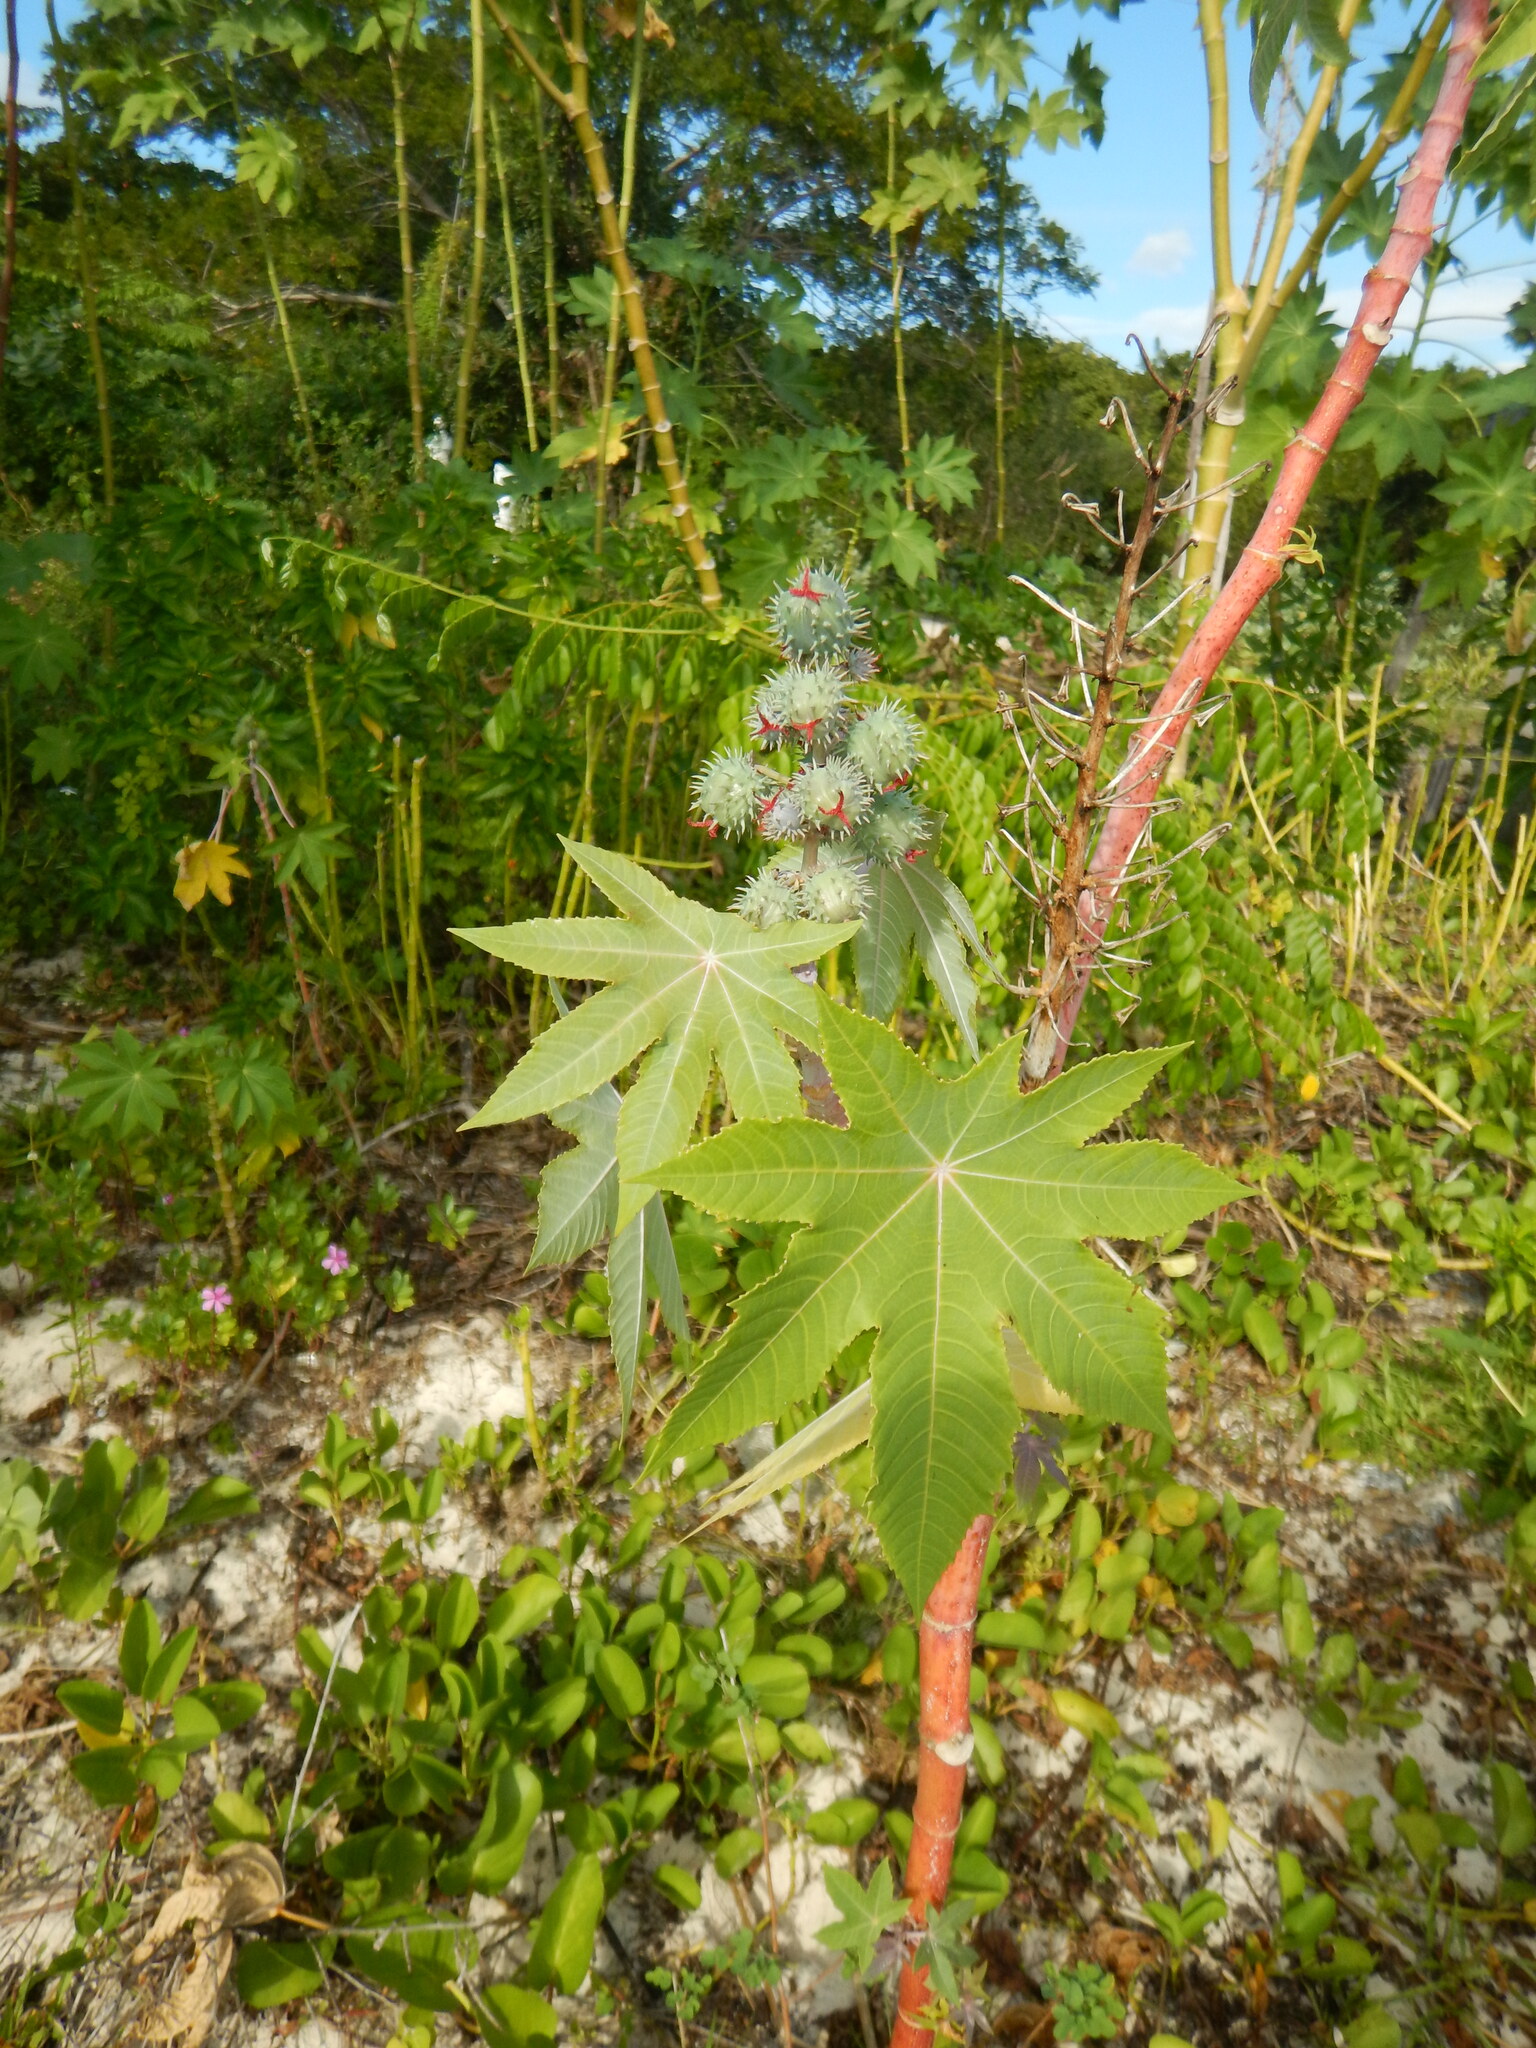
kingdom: Plantae
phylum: Tracheophyta
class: Magnoliopsida
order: Malpighiales
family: Euphorbiaceae
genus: Ricinus
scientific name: Ricinus communis
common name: Castor-oil-plant
